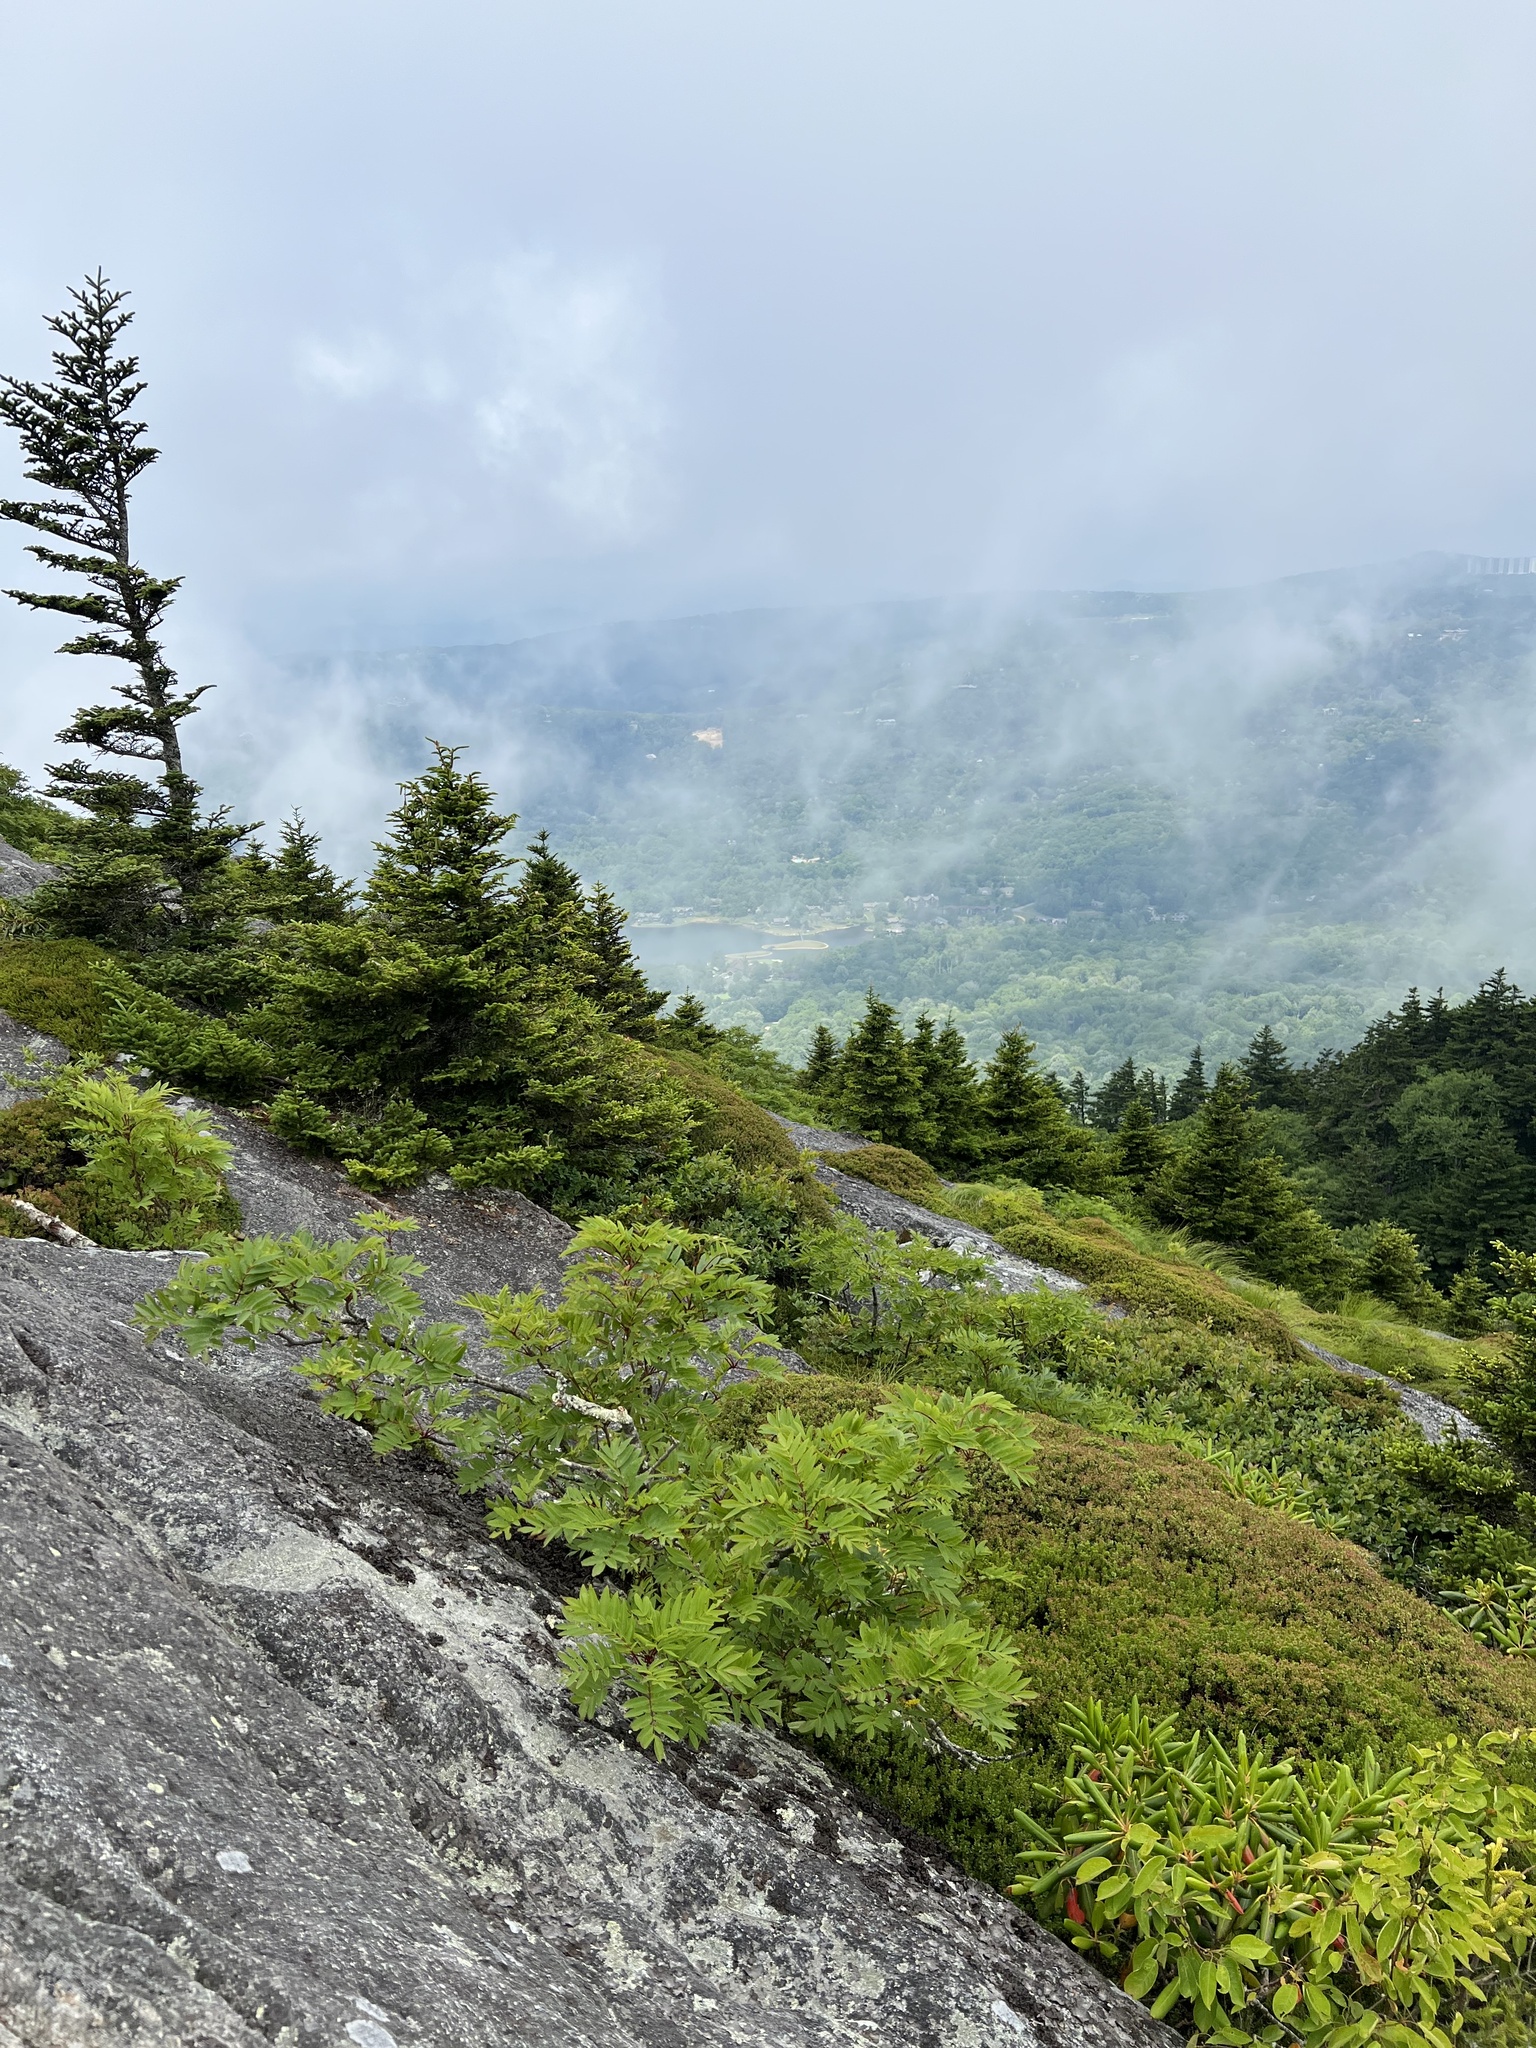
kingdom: Plantae
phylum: Tracheophyta
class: Magnoliopsida
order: Rosales
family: Rosaceae
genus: Sorbus
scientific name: Sorbus americana
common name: American mountain-ash
